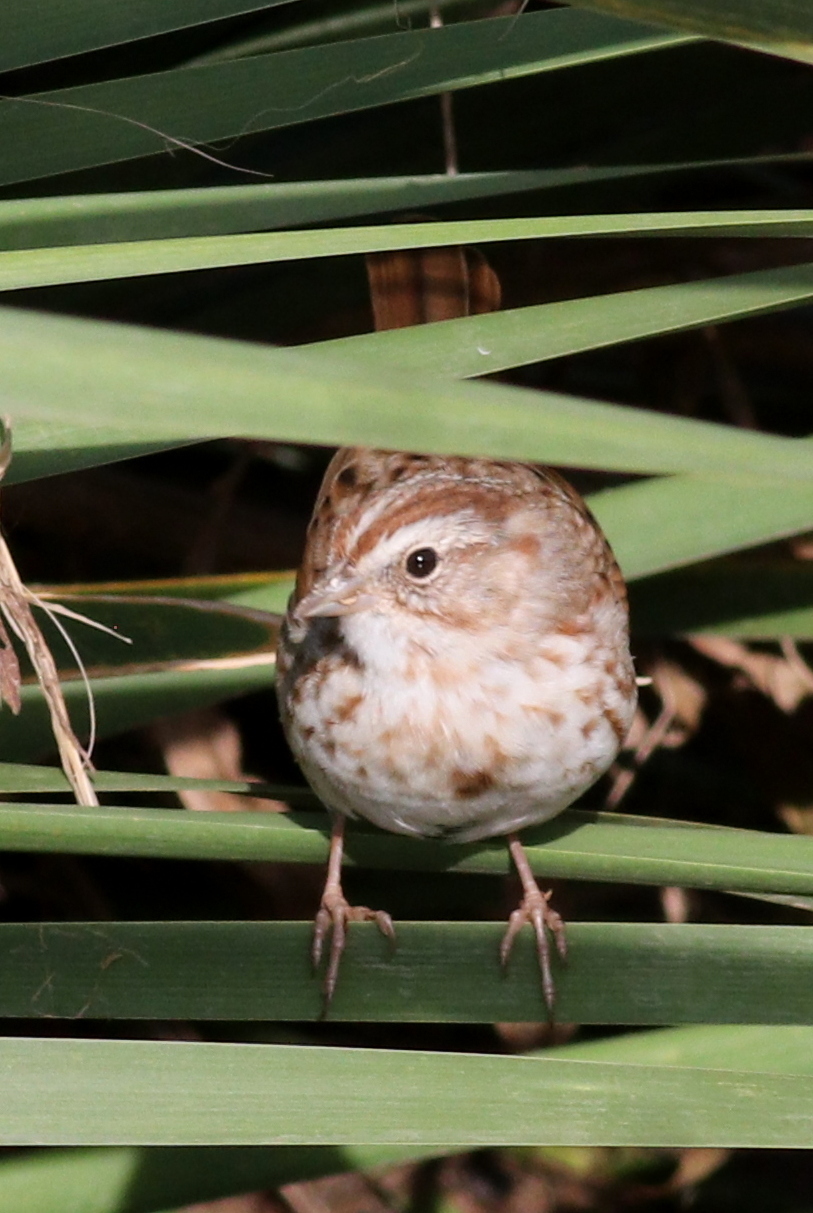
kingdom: Animalia
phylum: Chordata
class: Aves
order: Passeriformes
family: Passerellidae
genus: Melospiza
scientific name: Melospiza melodia
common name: Song sparrow
